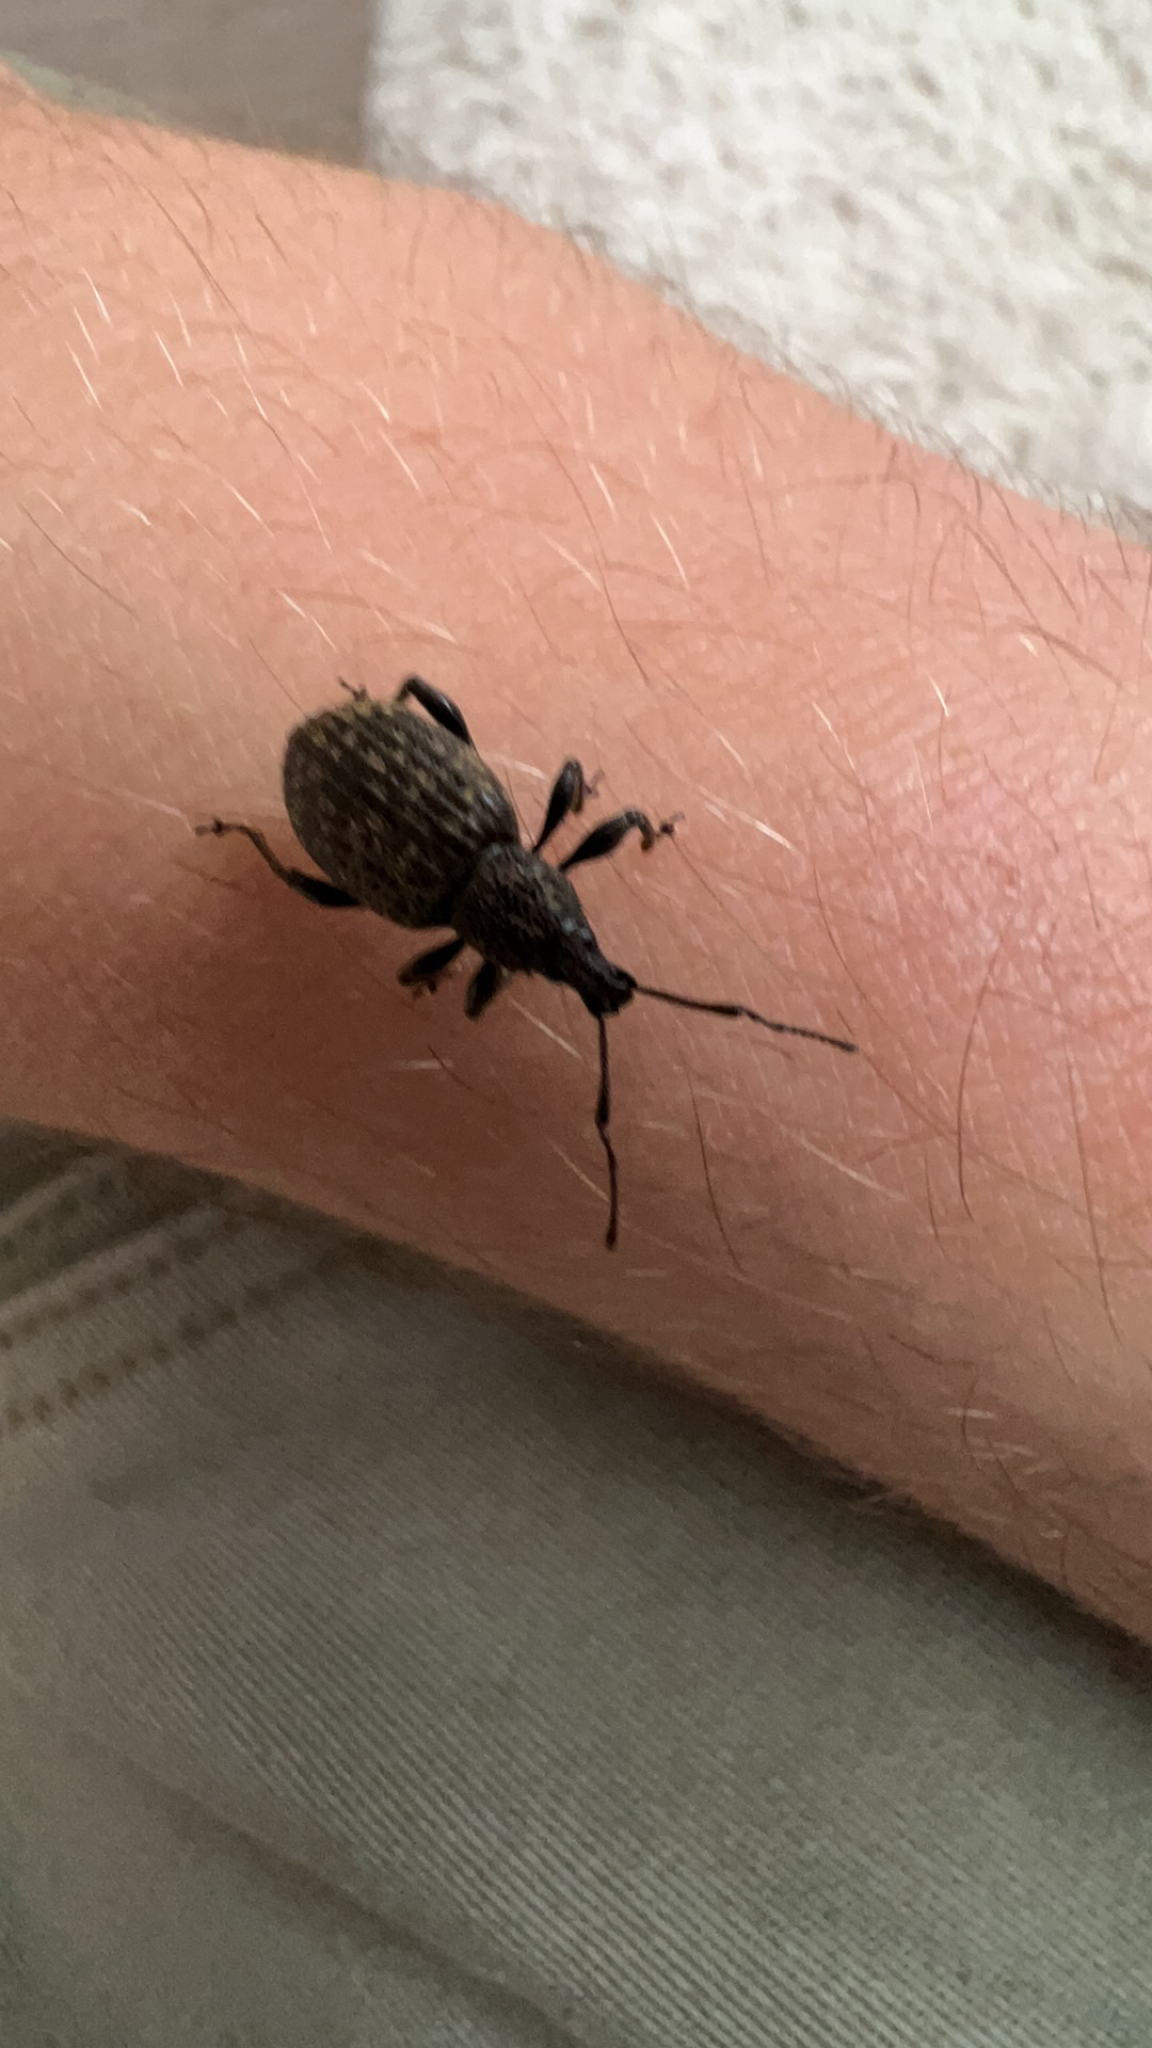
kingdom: Animalia
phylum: Arthropoda
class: Insecta
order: Coleoptera
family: Curculionidae
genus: Otiorhynchus
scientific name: Otiorhynchus sulcatus
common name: Black vine weevil
